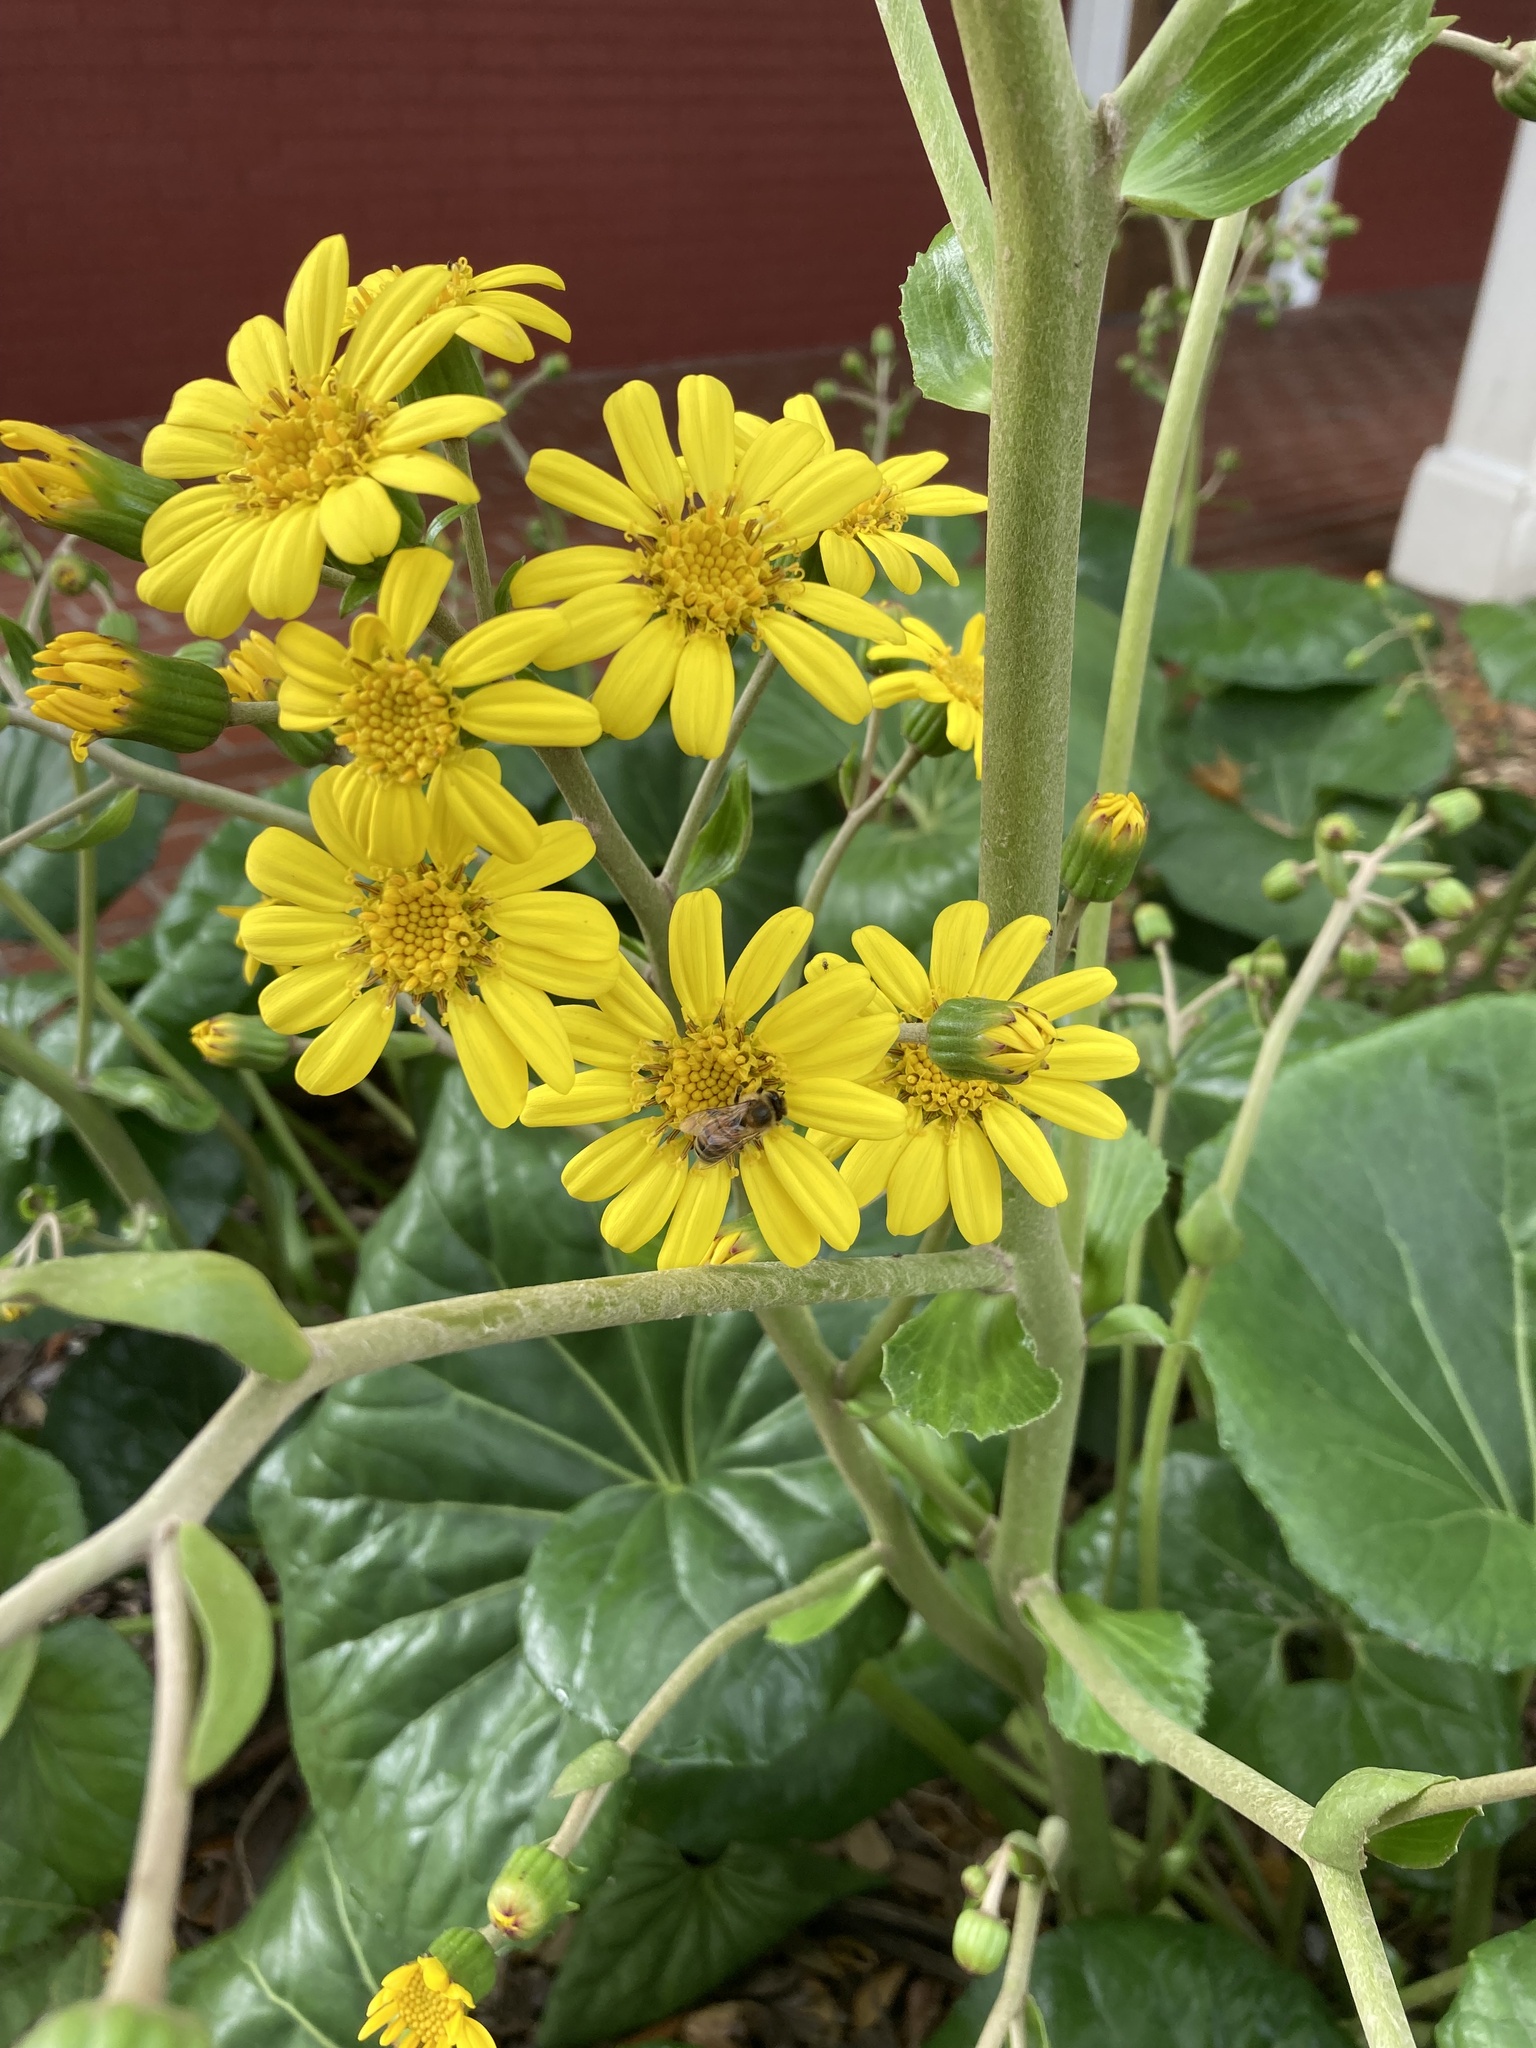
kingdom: Animalia
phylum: Arthropoda
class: Insecta
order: Hymenoptera
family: Apidae
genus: Apis
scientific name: Apis mellifera
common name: Honey bee
